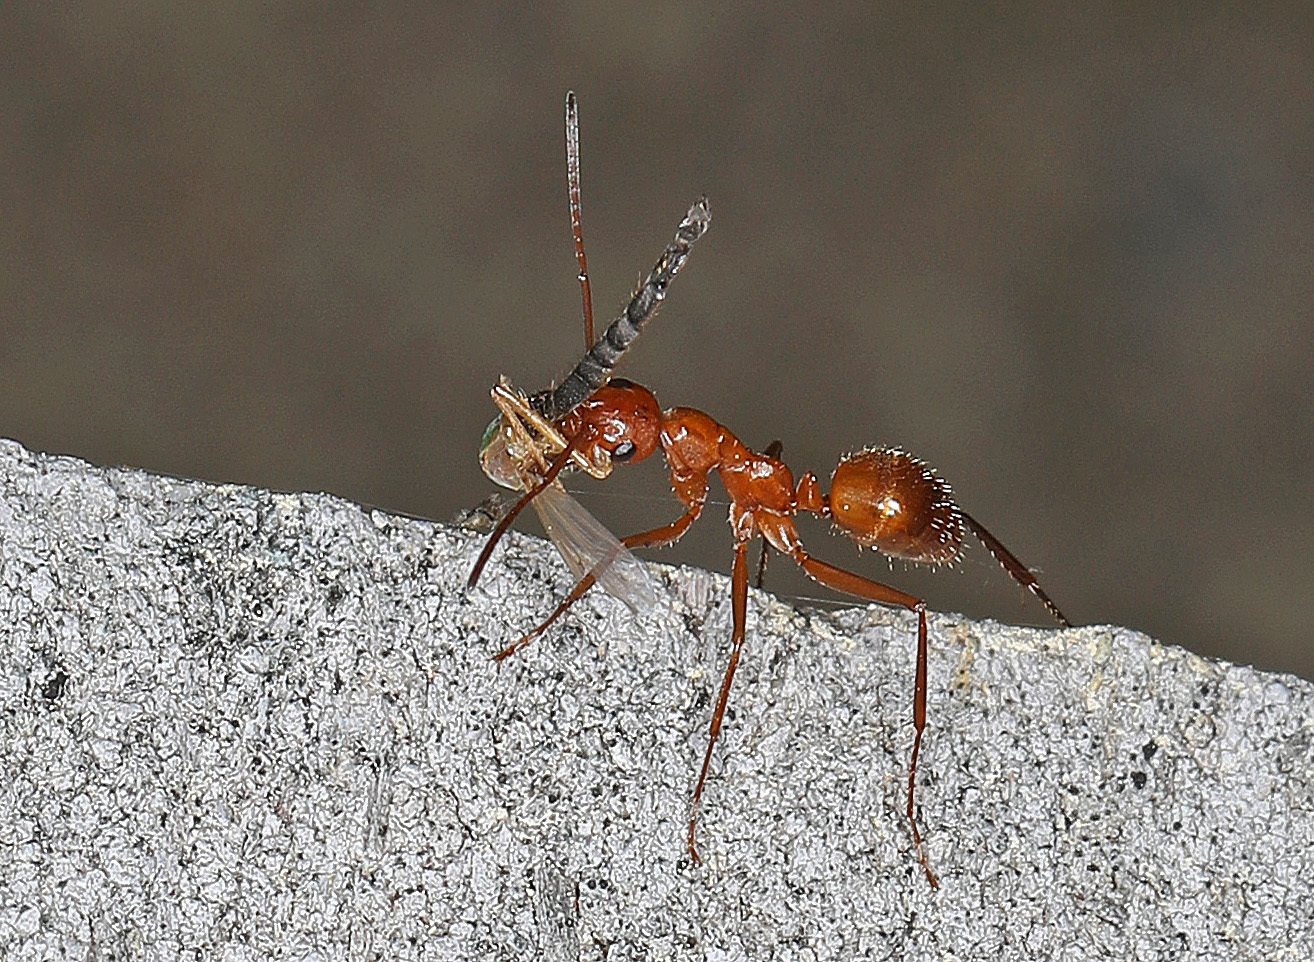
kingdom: Animalia
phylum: Arthropoda
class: Insecta
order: Hymenoptera
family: Formicidae
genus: Formica
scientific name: Formica pallidefulva
